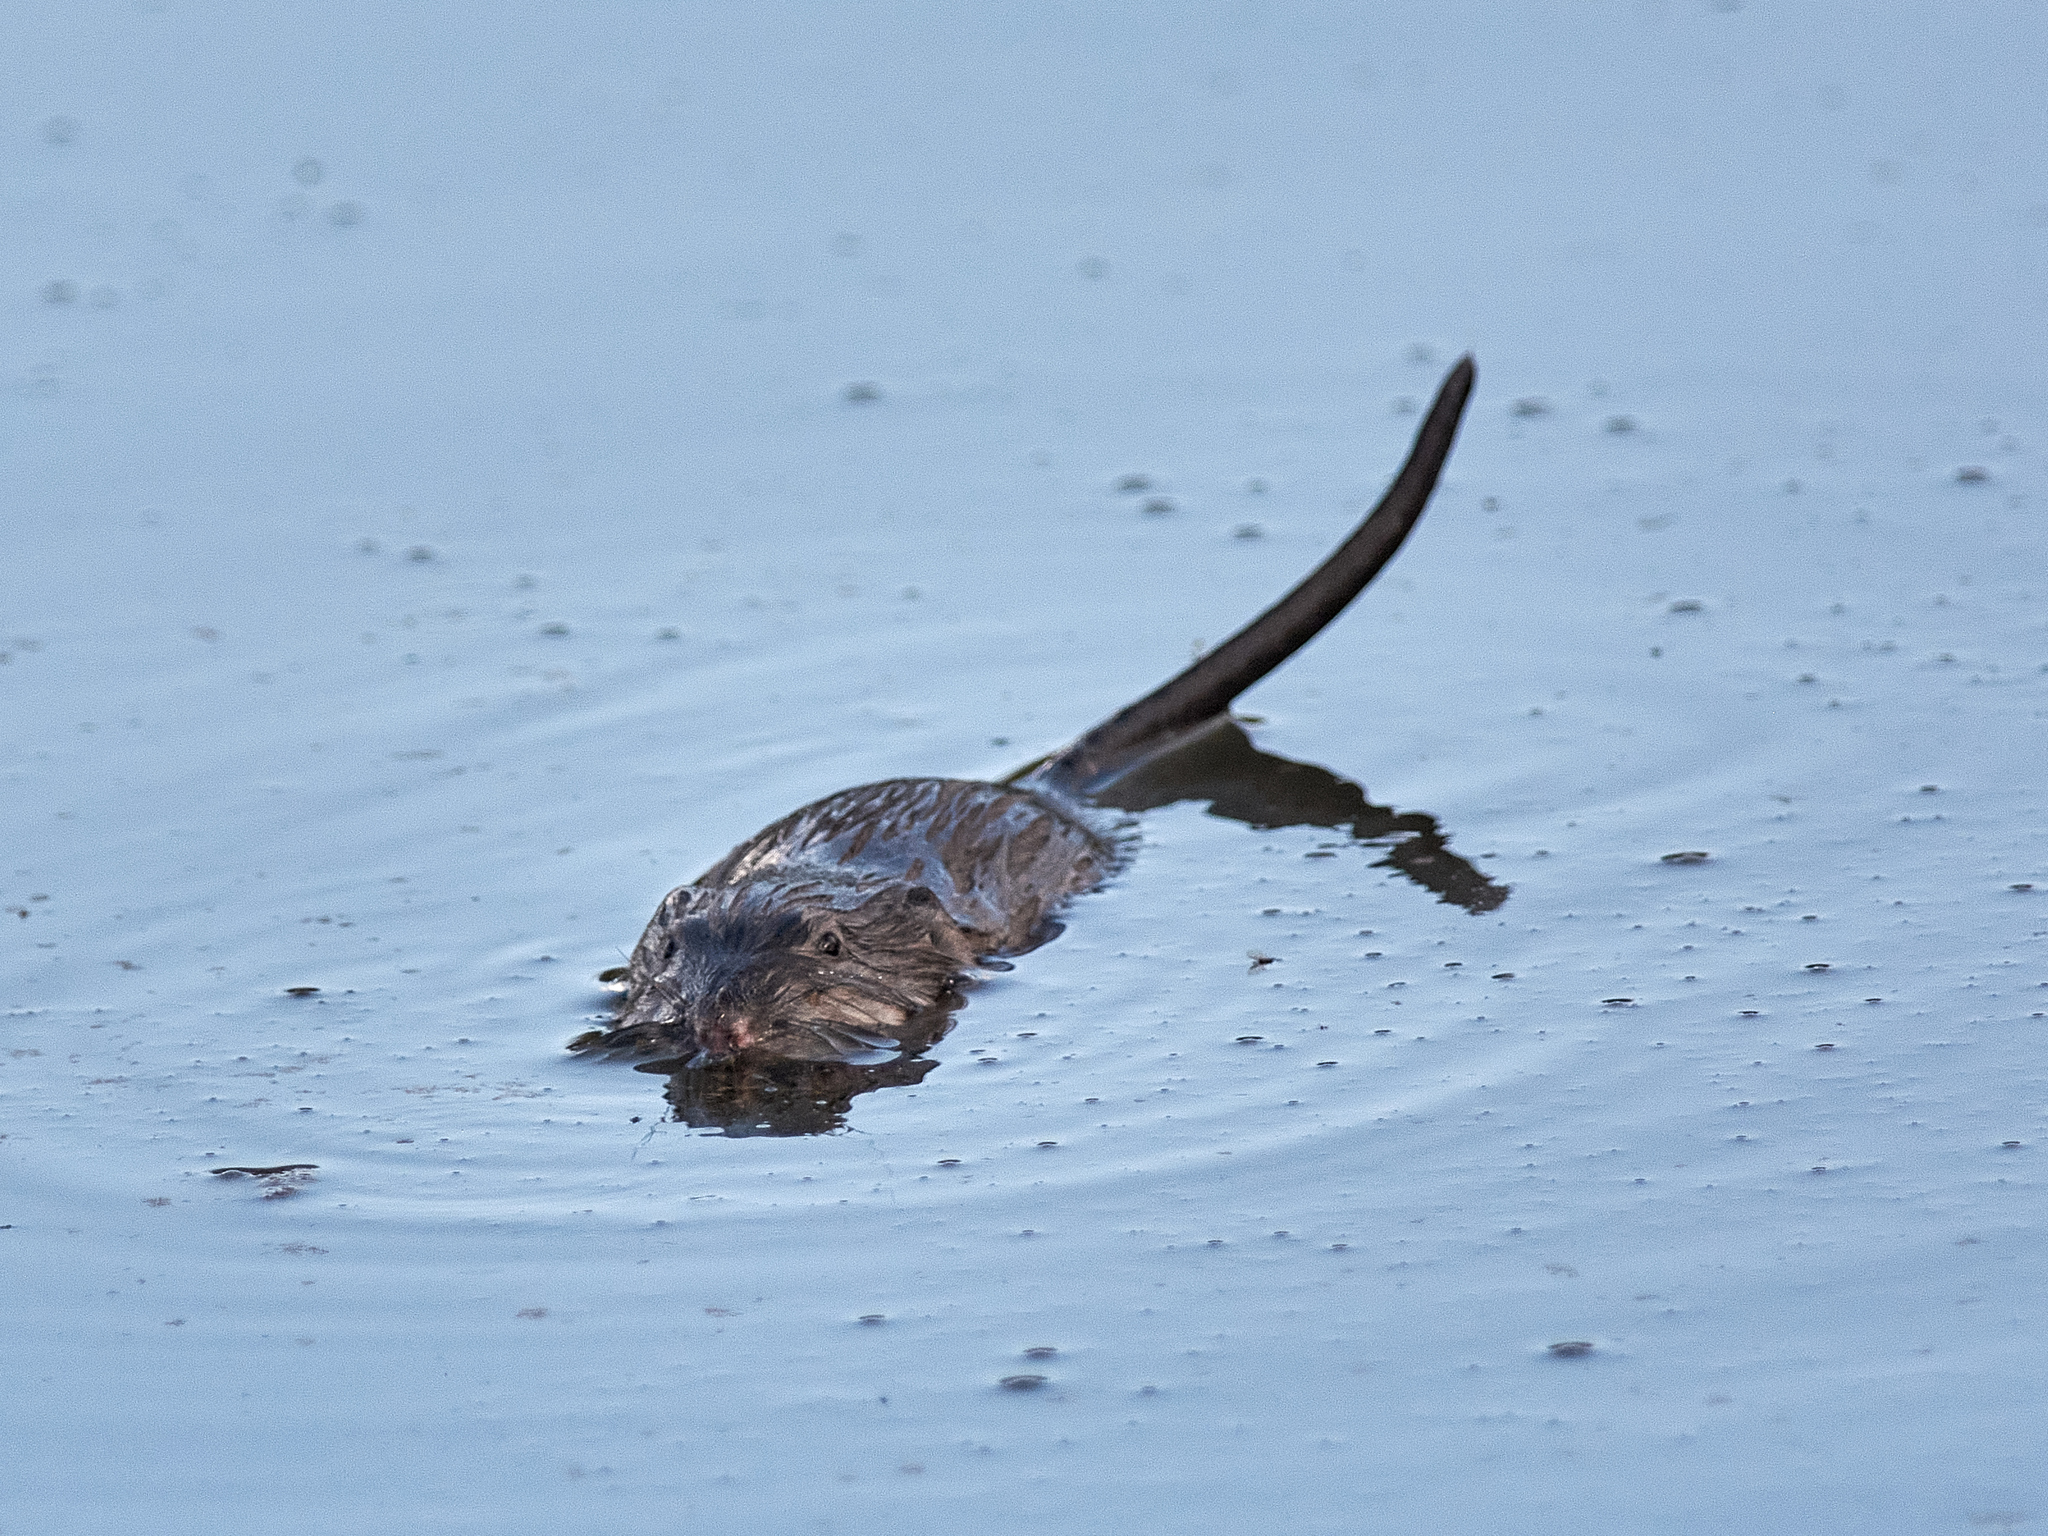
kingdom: Animalia
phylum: Chordata
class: Mammalia
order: Rodentia
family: Cricetidae
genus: Ondatra
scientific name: Ondatra zibethicus
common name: Muskrat
